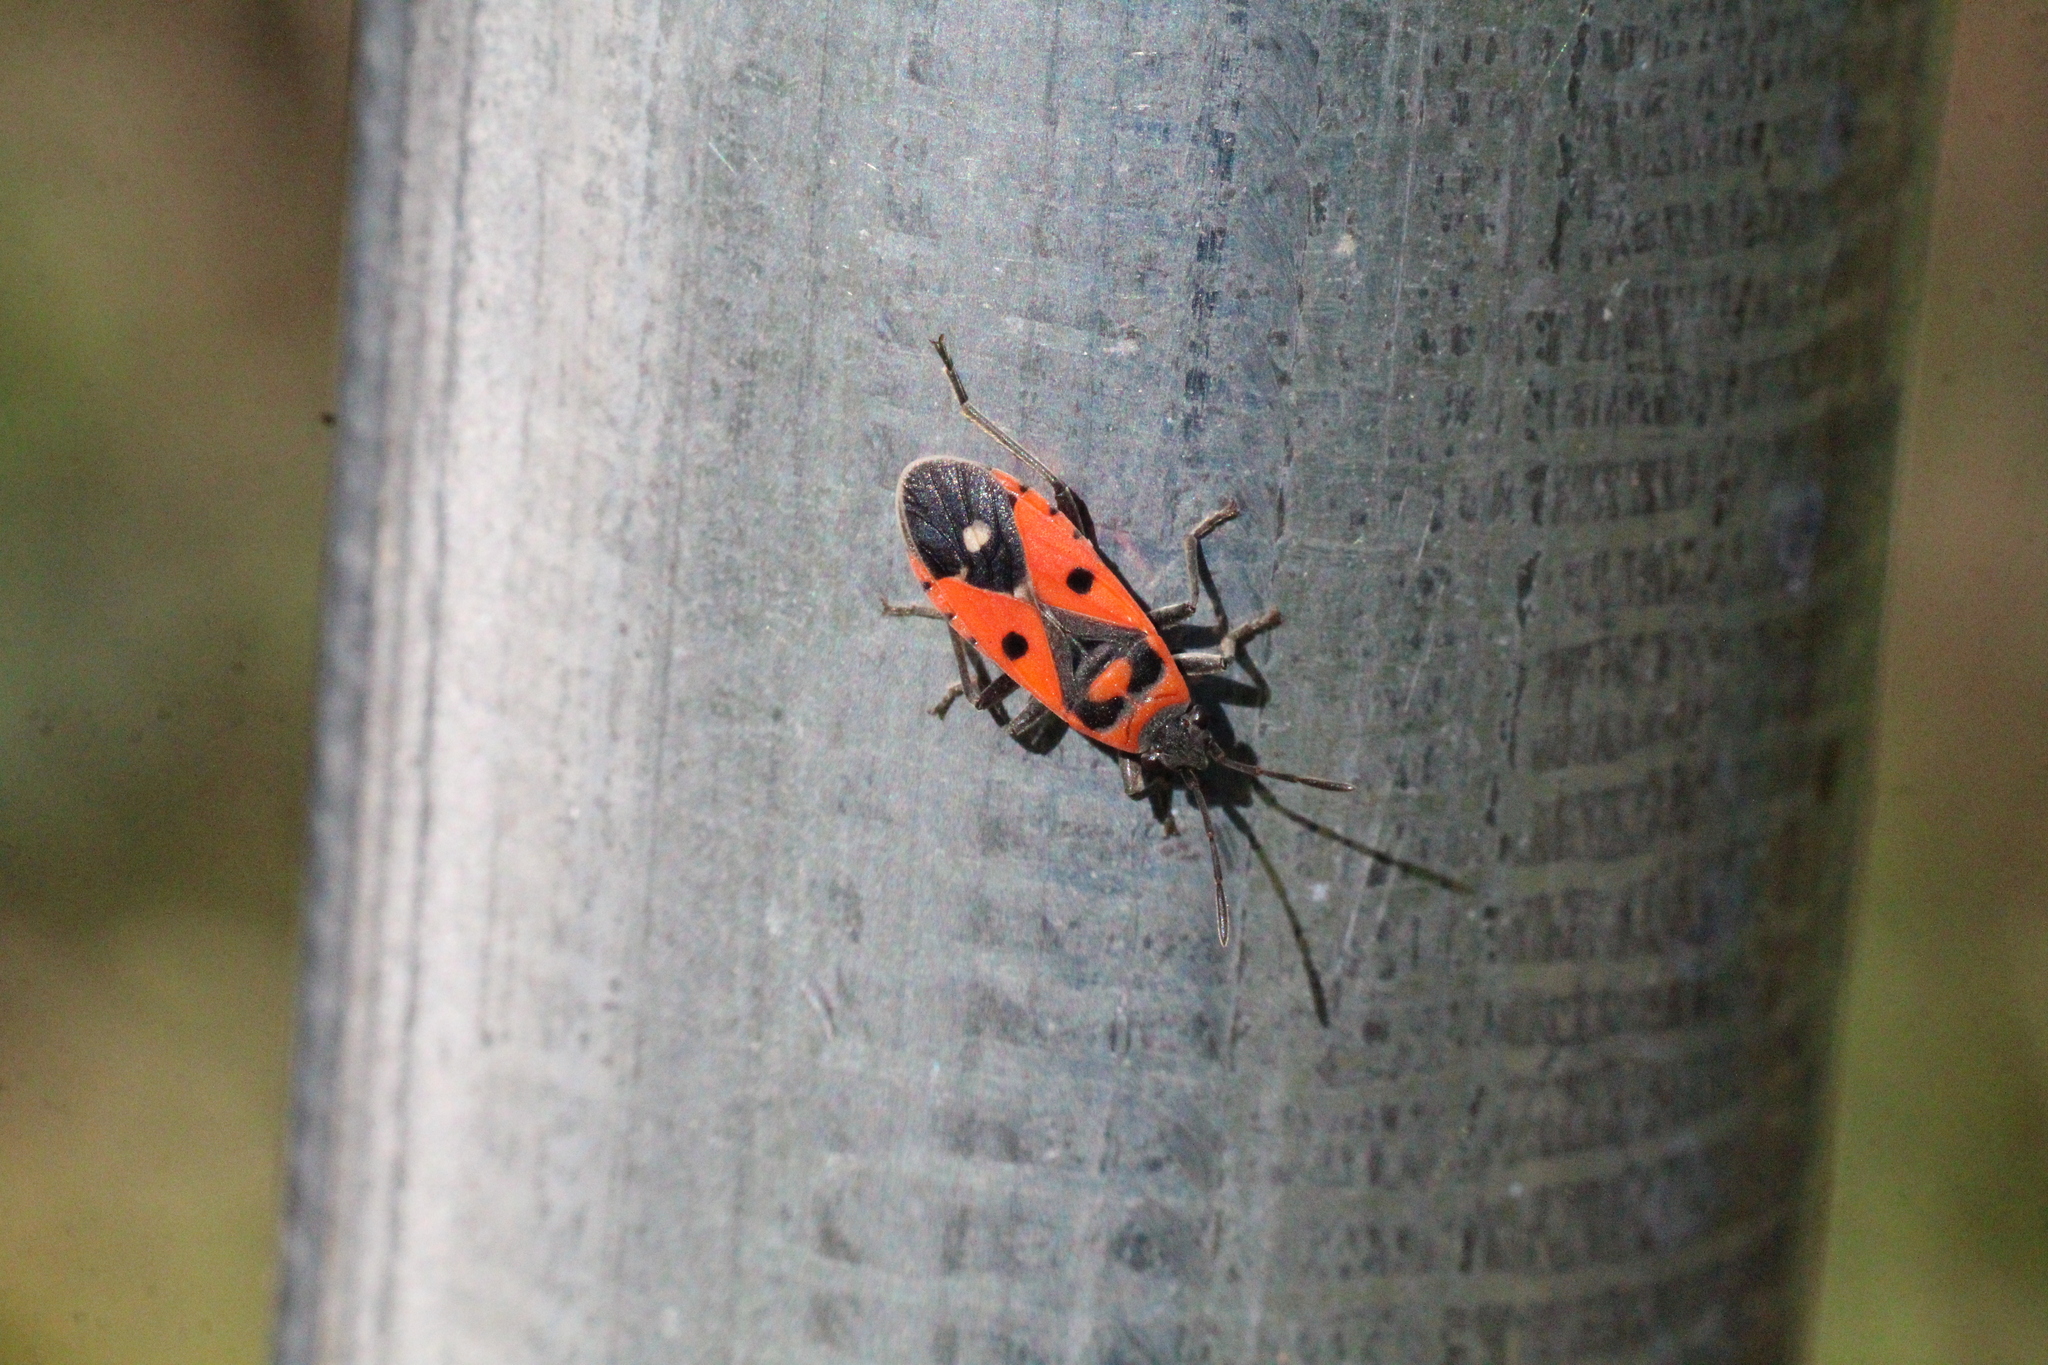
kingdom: Animalia
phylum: Arthropoda
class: Insecta
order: Hemiptera
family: Lygaeidae
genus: Melanocoryphus
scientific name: Melanocoryphus albomaculatus
